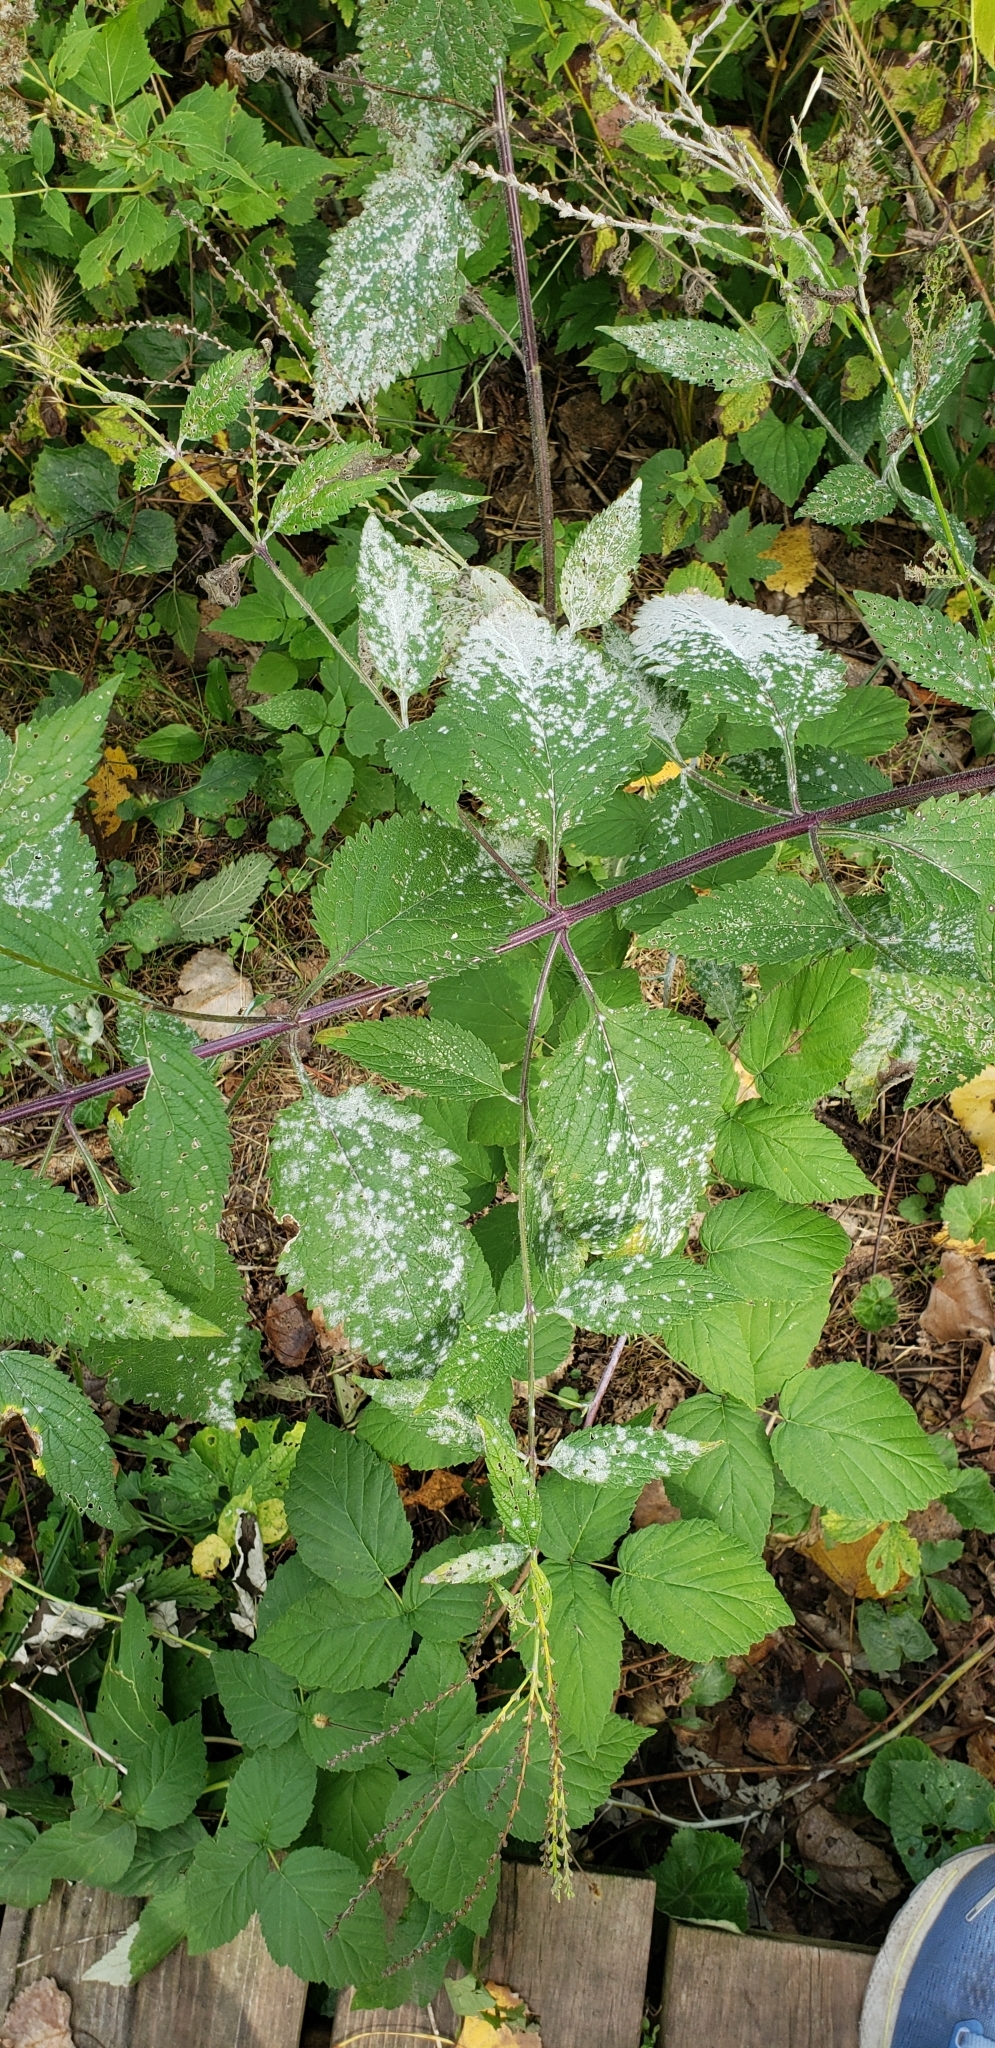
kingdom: Fungi
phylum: Ascomycota
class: Leotiomycetes
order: Helotiales
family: Erysiphaceae
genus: Golovinomyces
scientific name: Golovinomyces verbenae
